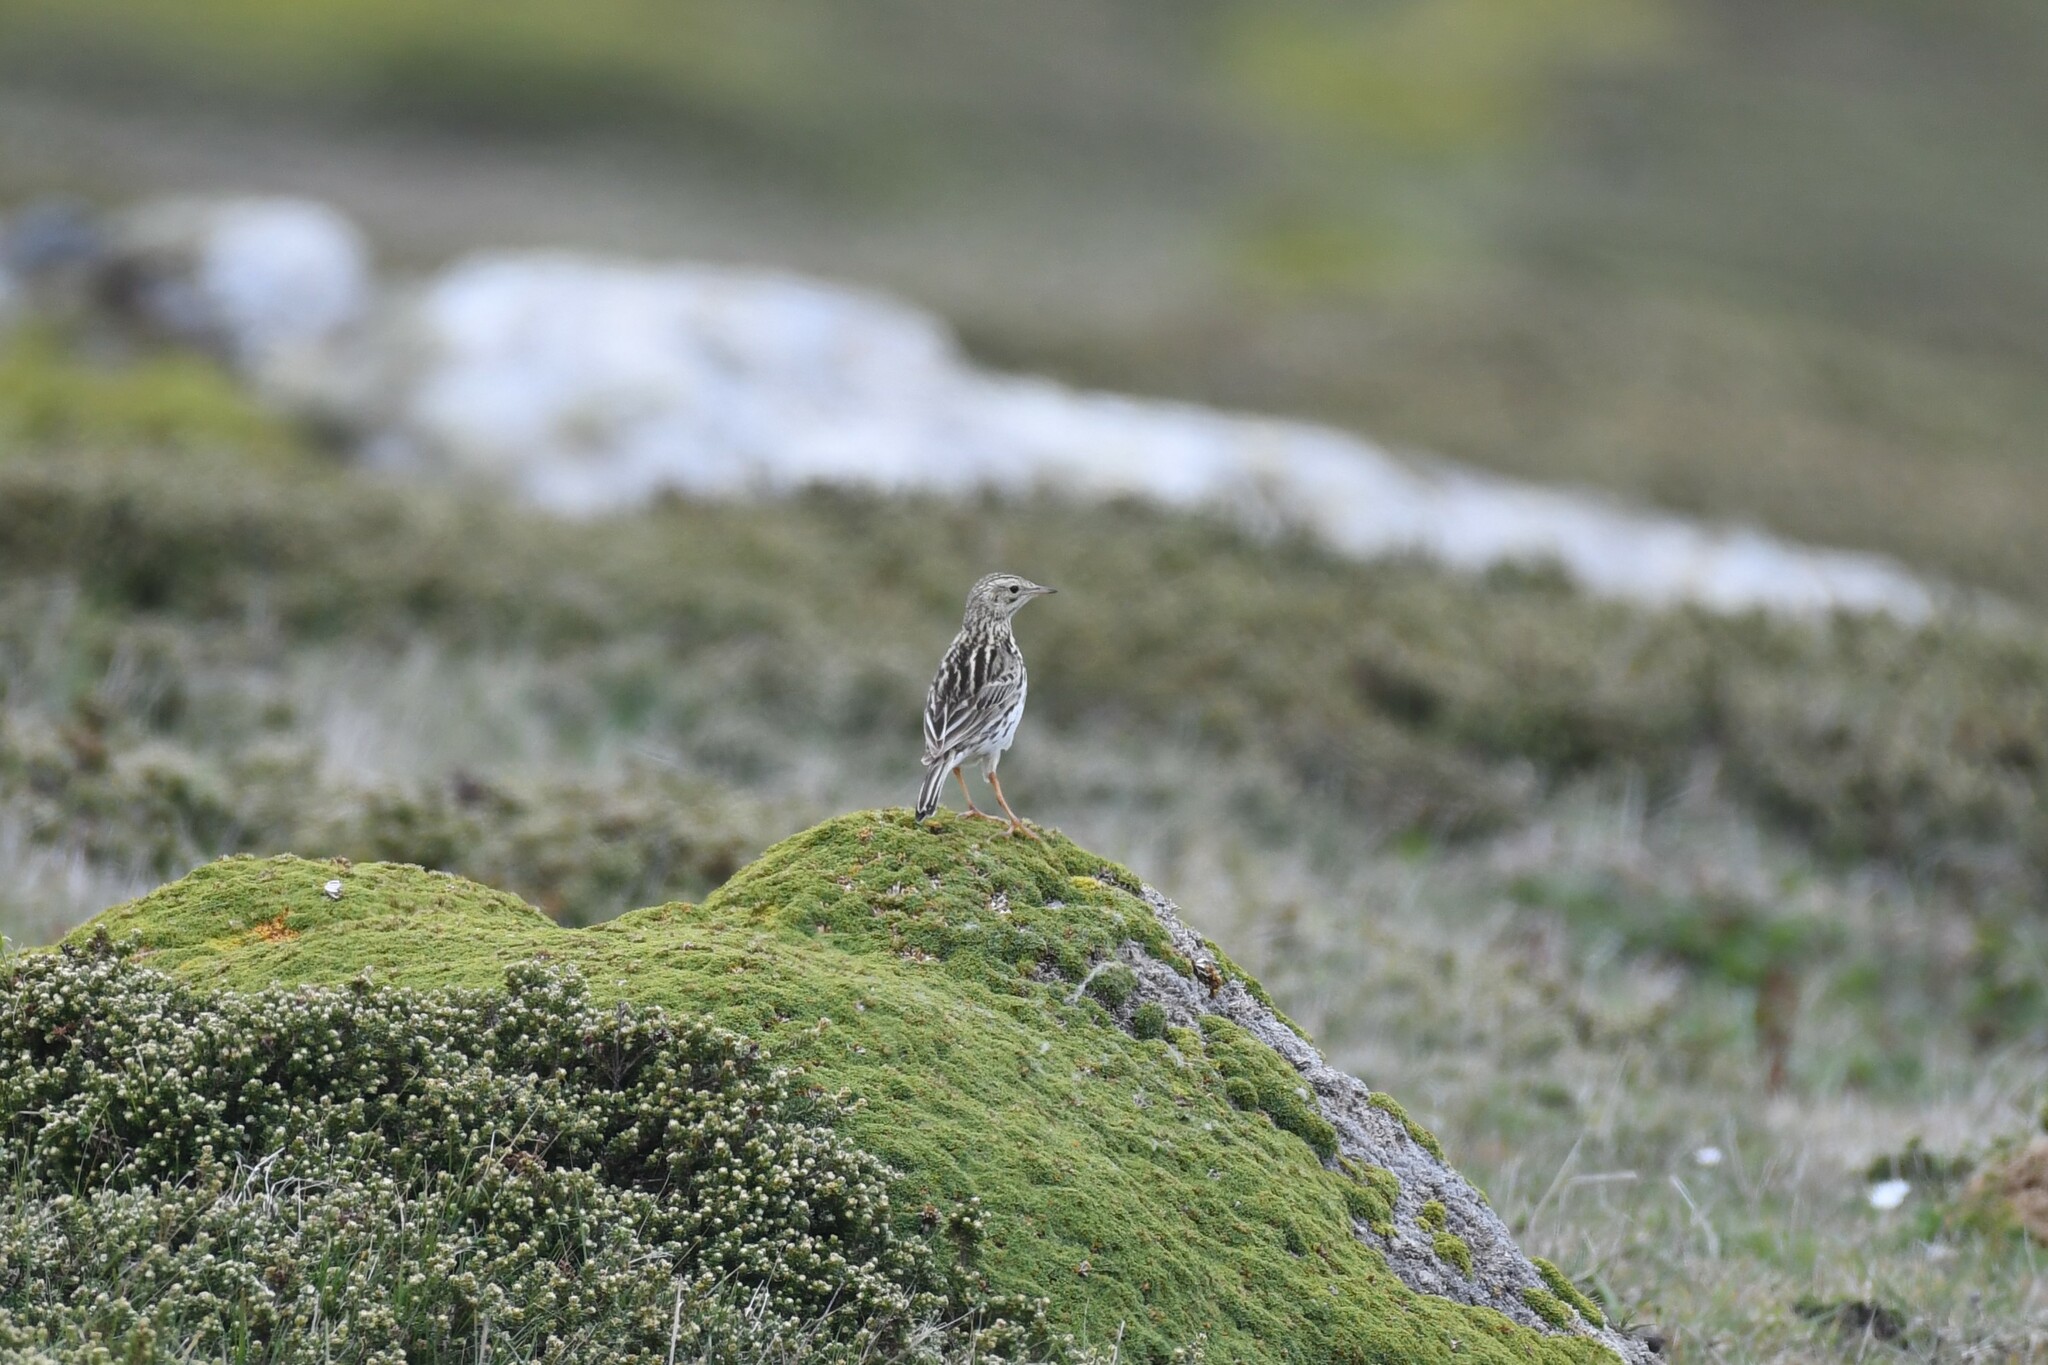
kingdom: Animalia
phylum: Chordata
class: Aves
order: Passeriformes
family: Motacillidae
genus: Anthus
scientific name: Anthus correndera
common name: Correndera pipit
